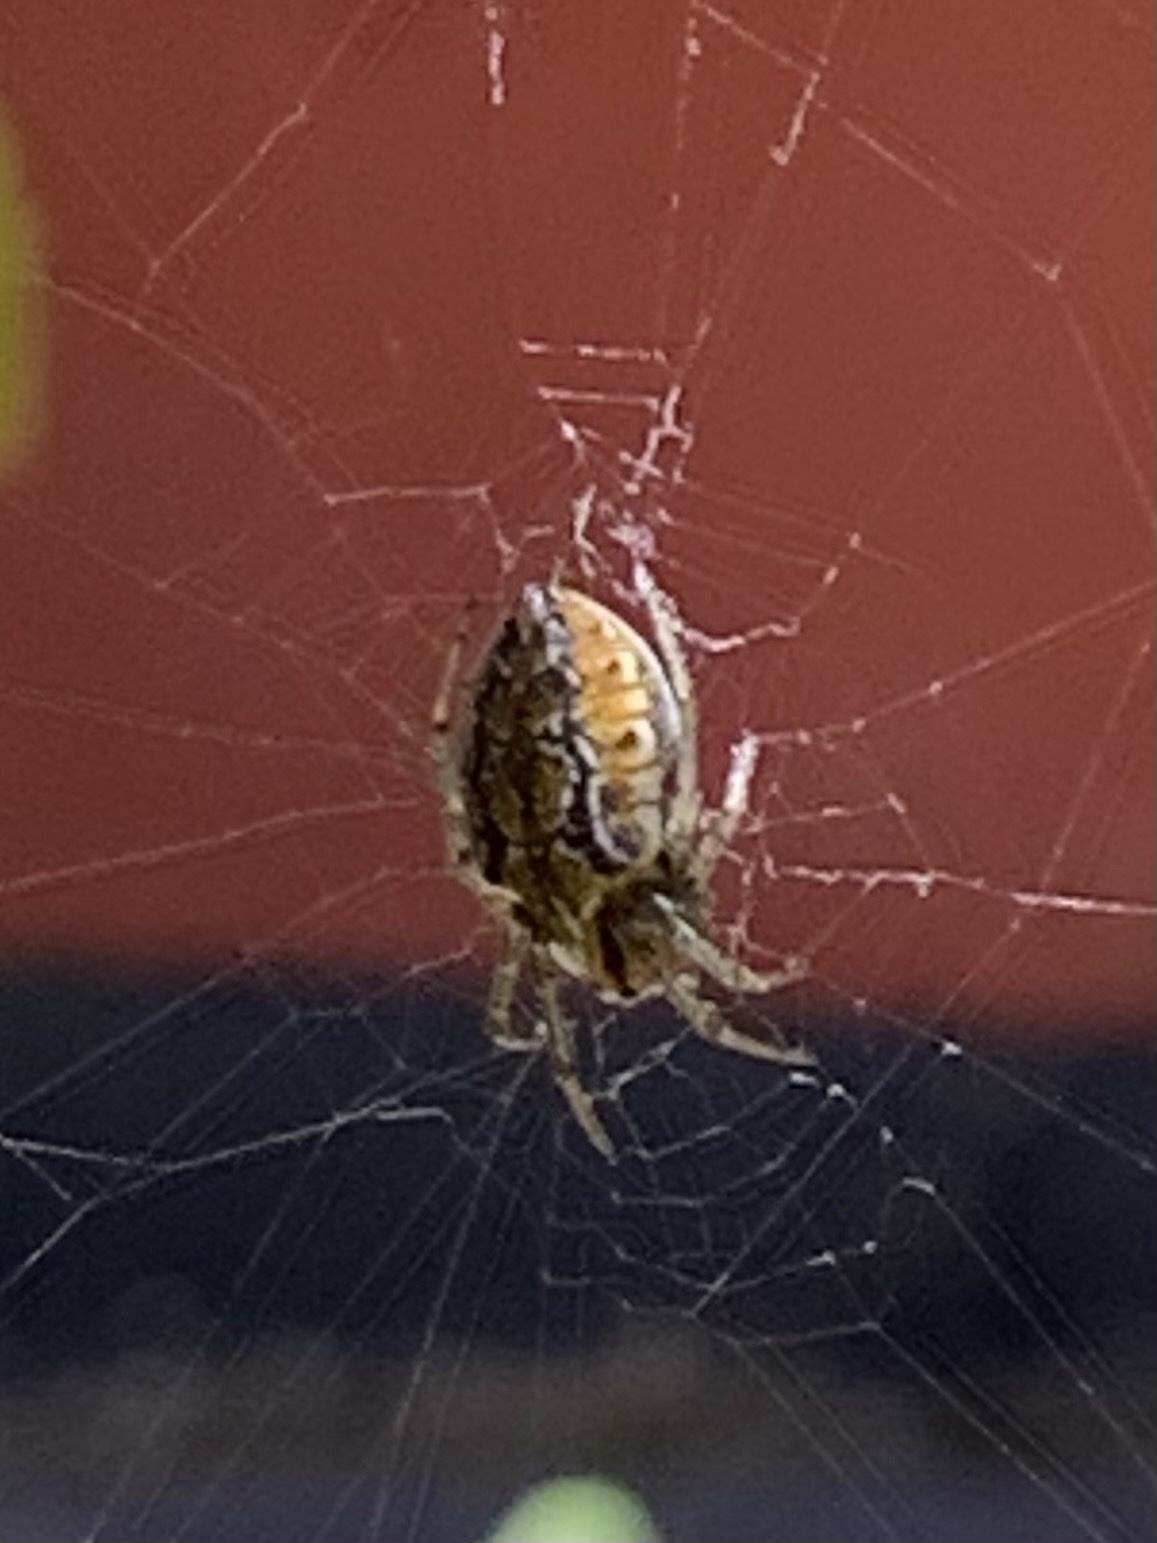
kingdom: Animalia
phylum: Arthropoda
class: Arachnida
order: Araneae
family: Araneidae
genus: Alpaida
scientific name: Alpaida nancho
